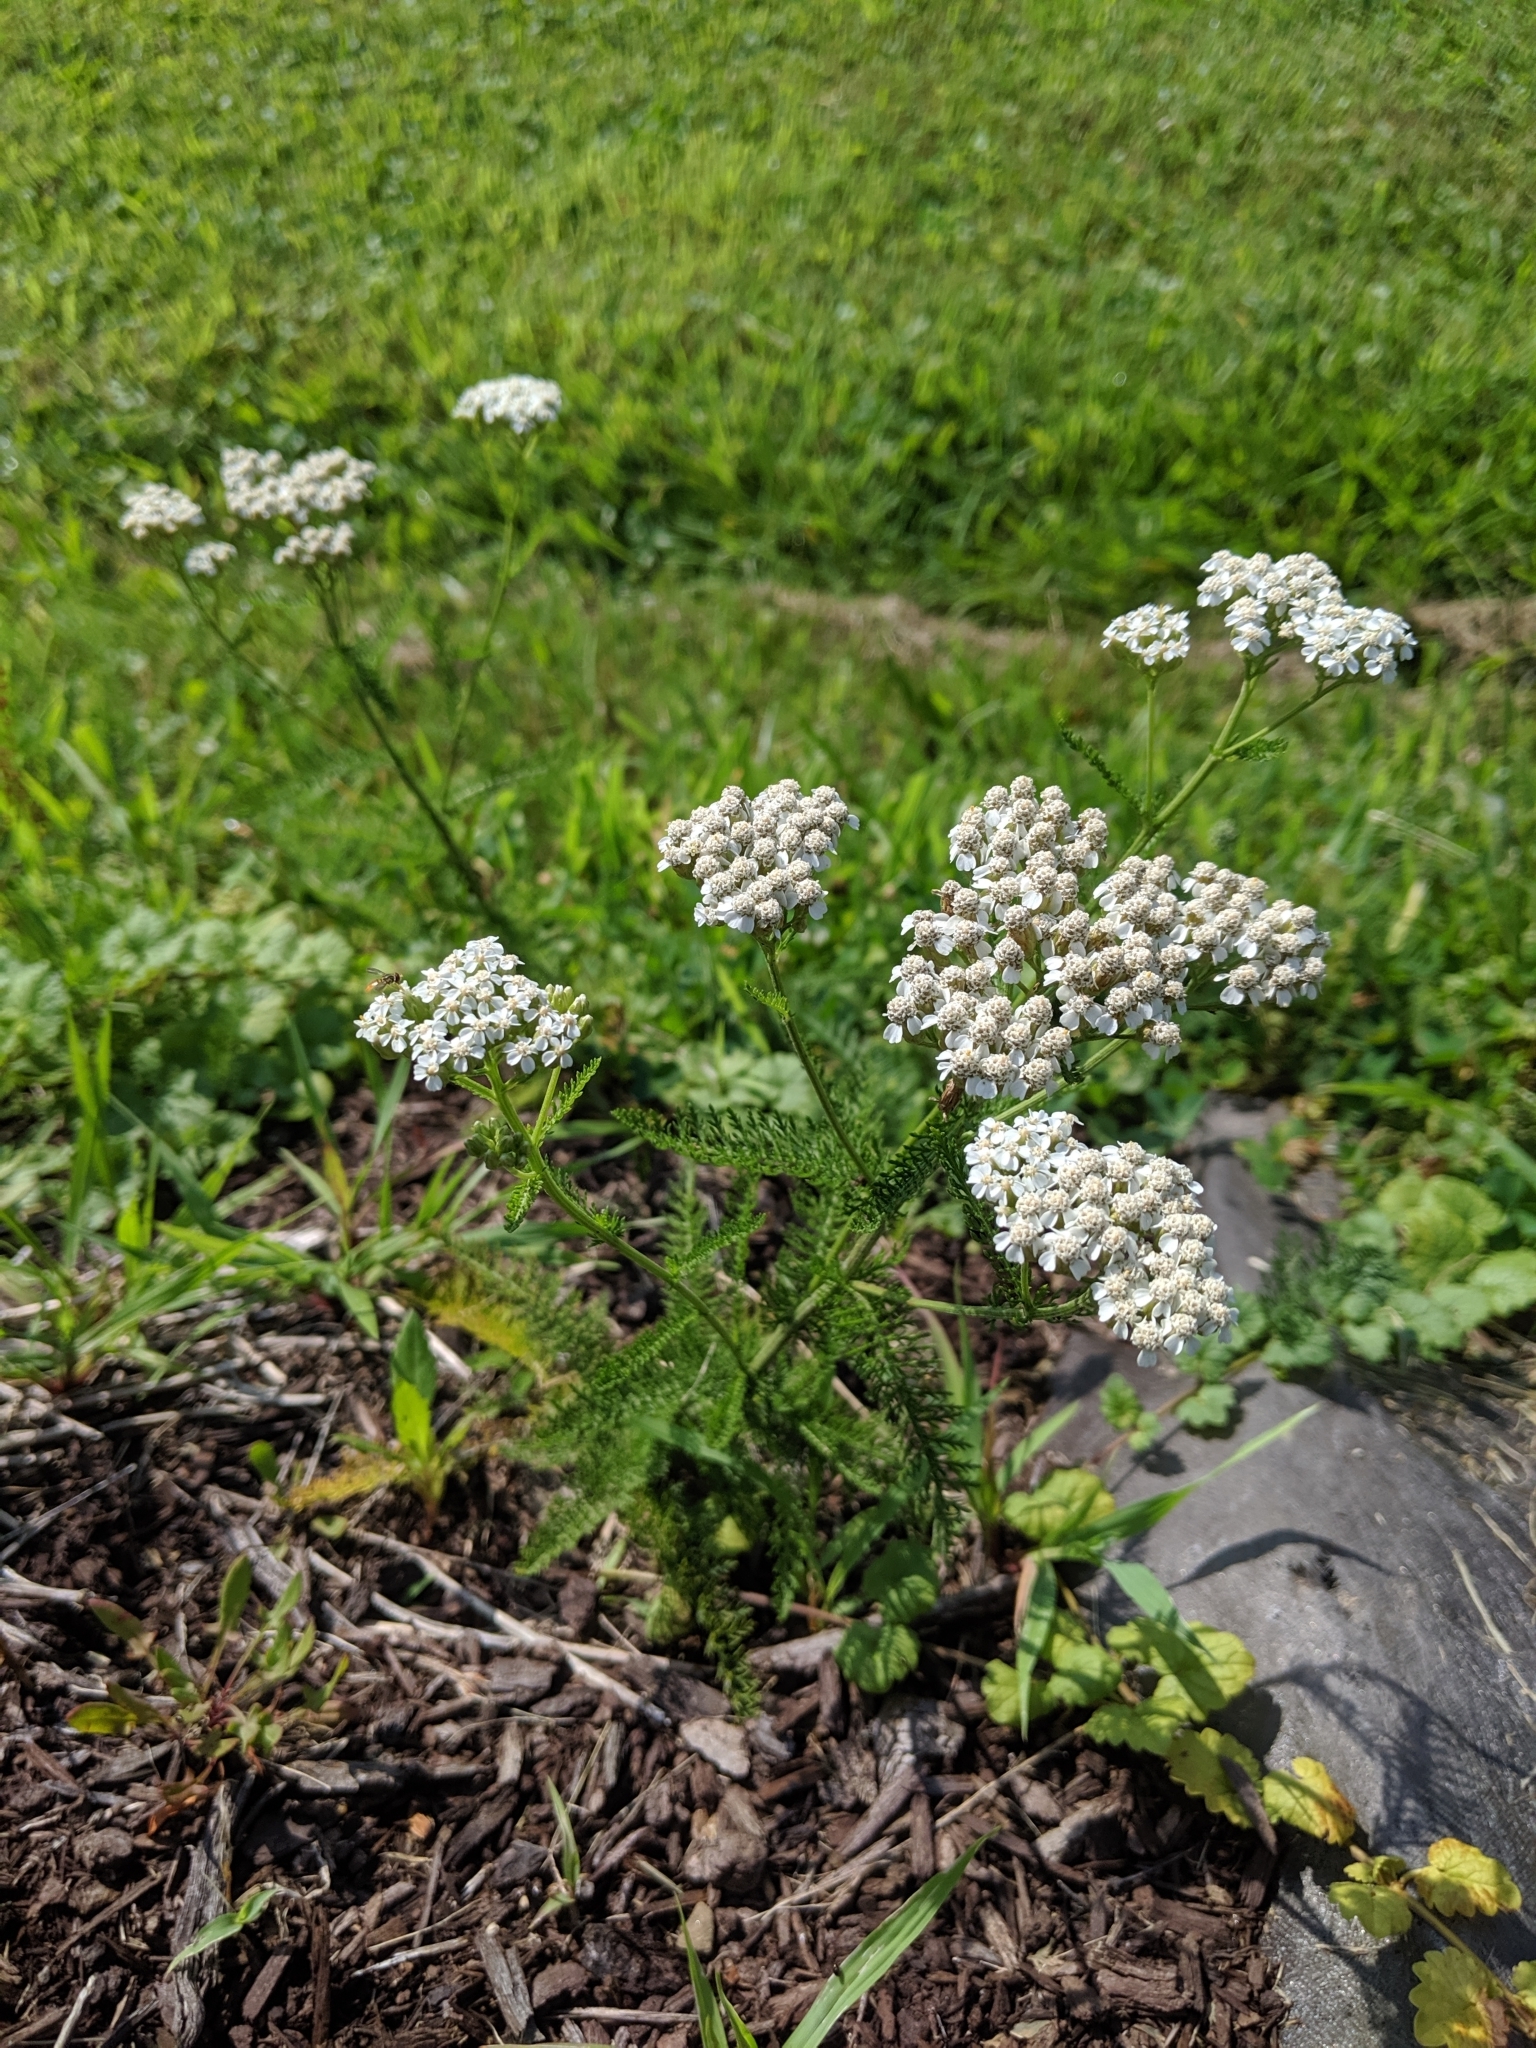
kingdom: Plantae
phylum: Tracheophyta
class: Magnoliopsida
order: Asterales
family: Asteraceae
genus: Achillea
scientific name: Achillea millefolium
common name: Yarrow
